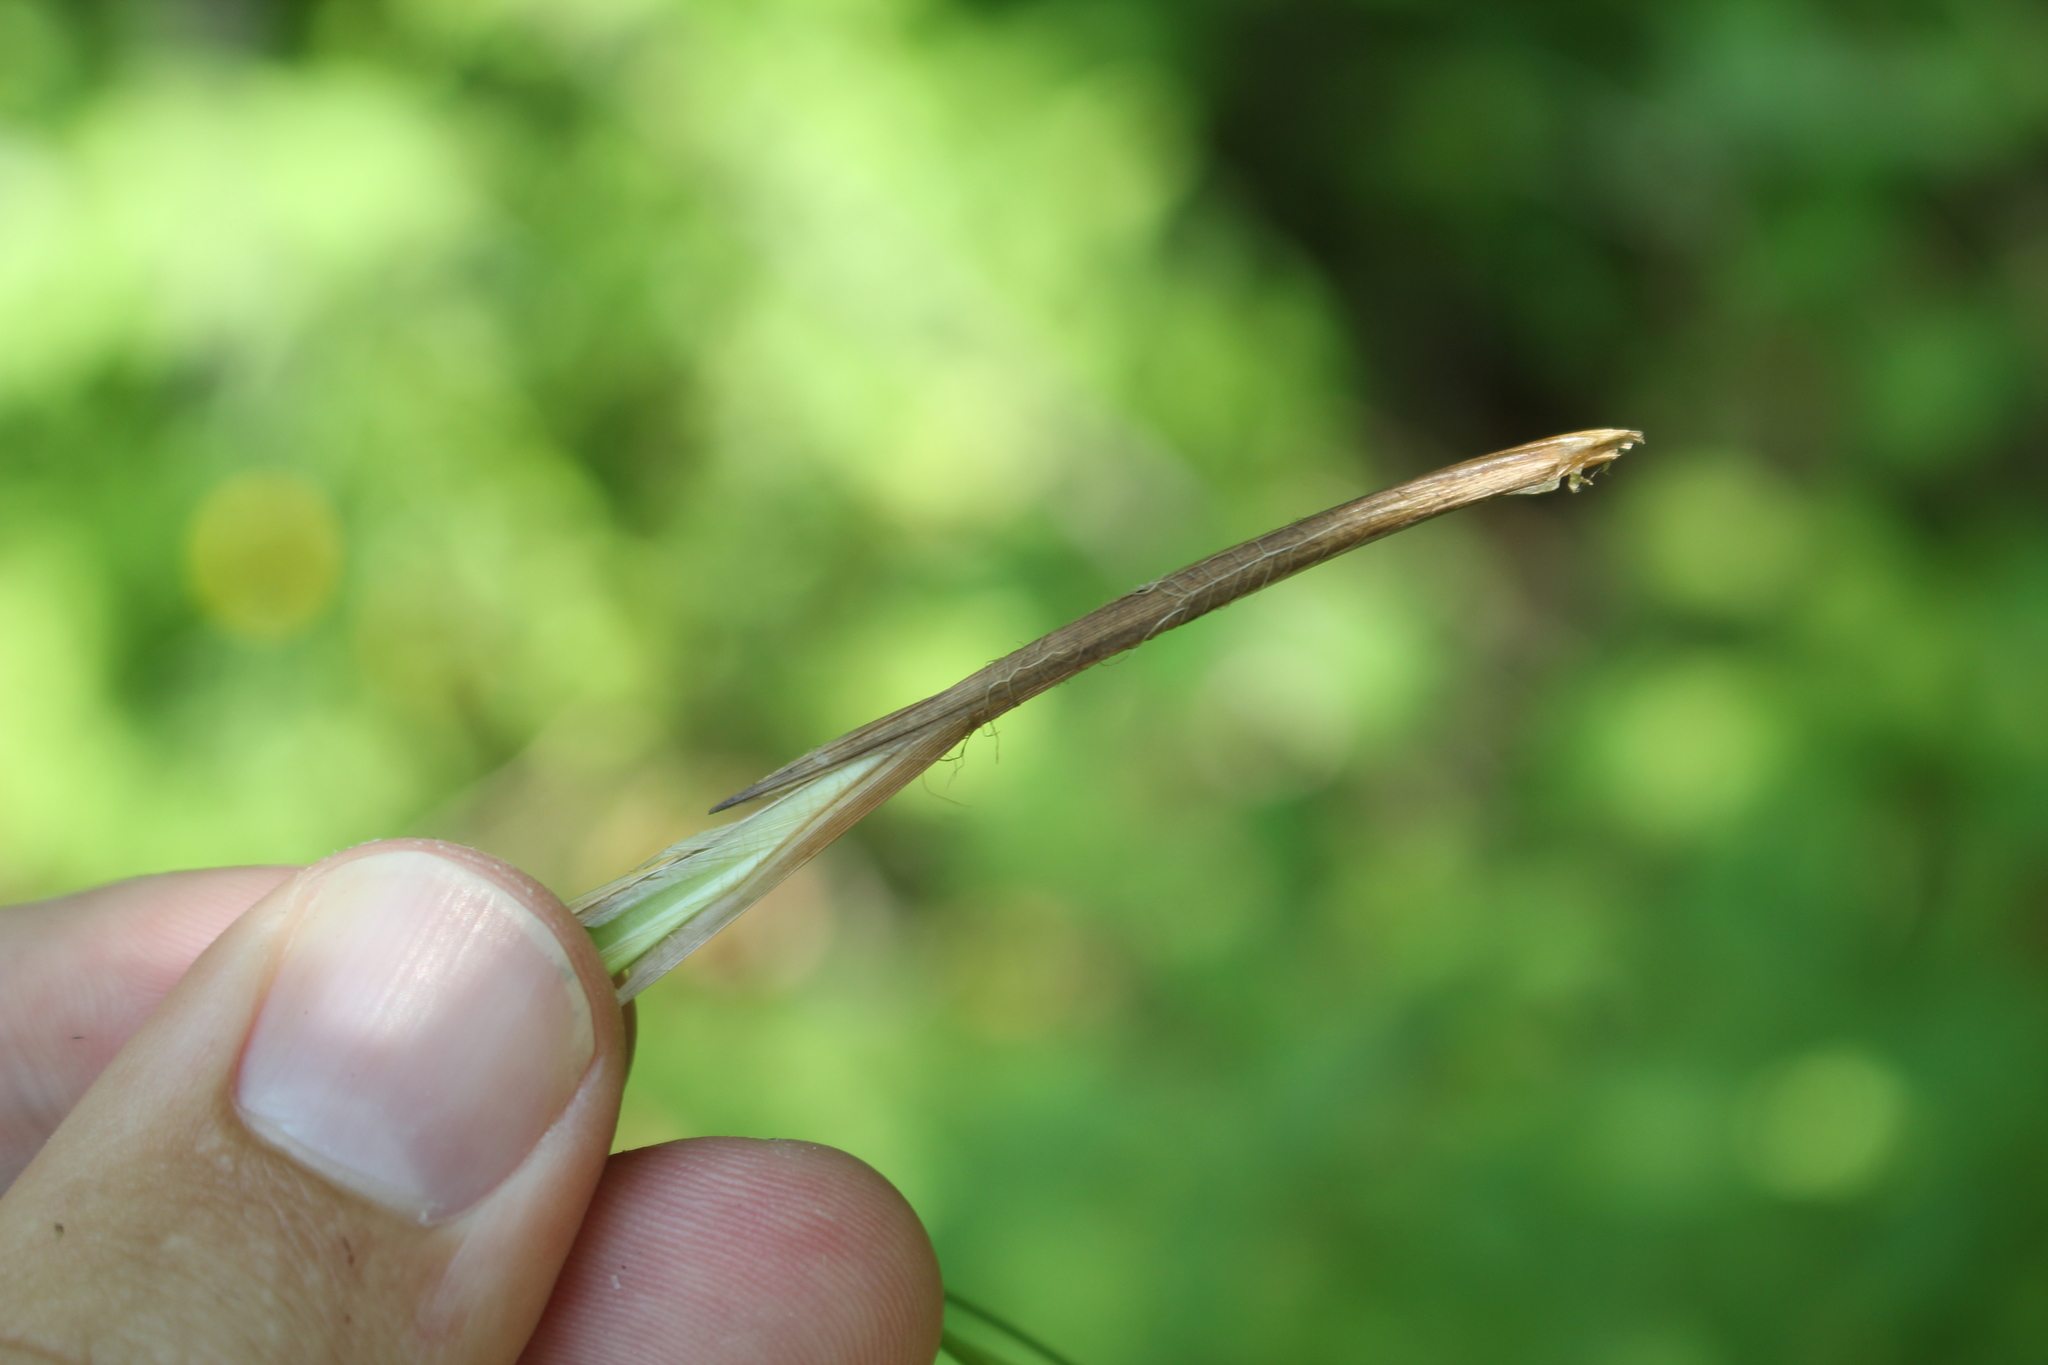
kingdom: Plantae
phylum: Tracheophyta
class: Liliopsida
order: Poales
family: Cyperaceae
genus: Carex
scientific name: Carex stricta
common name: Hummock sedge
